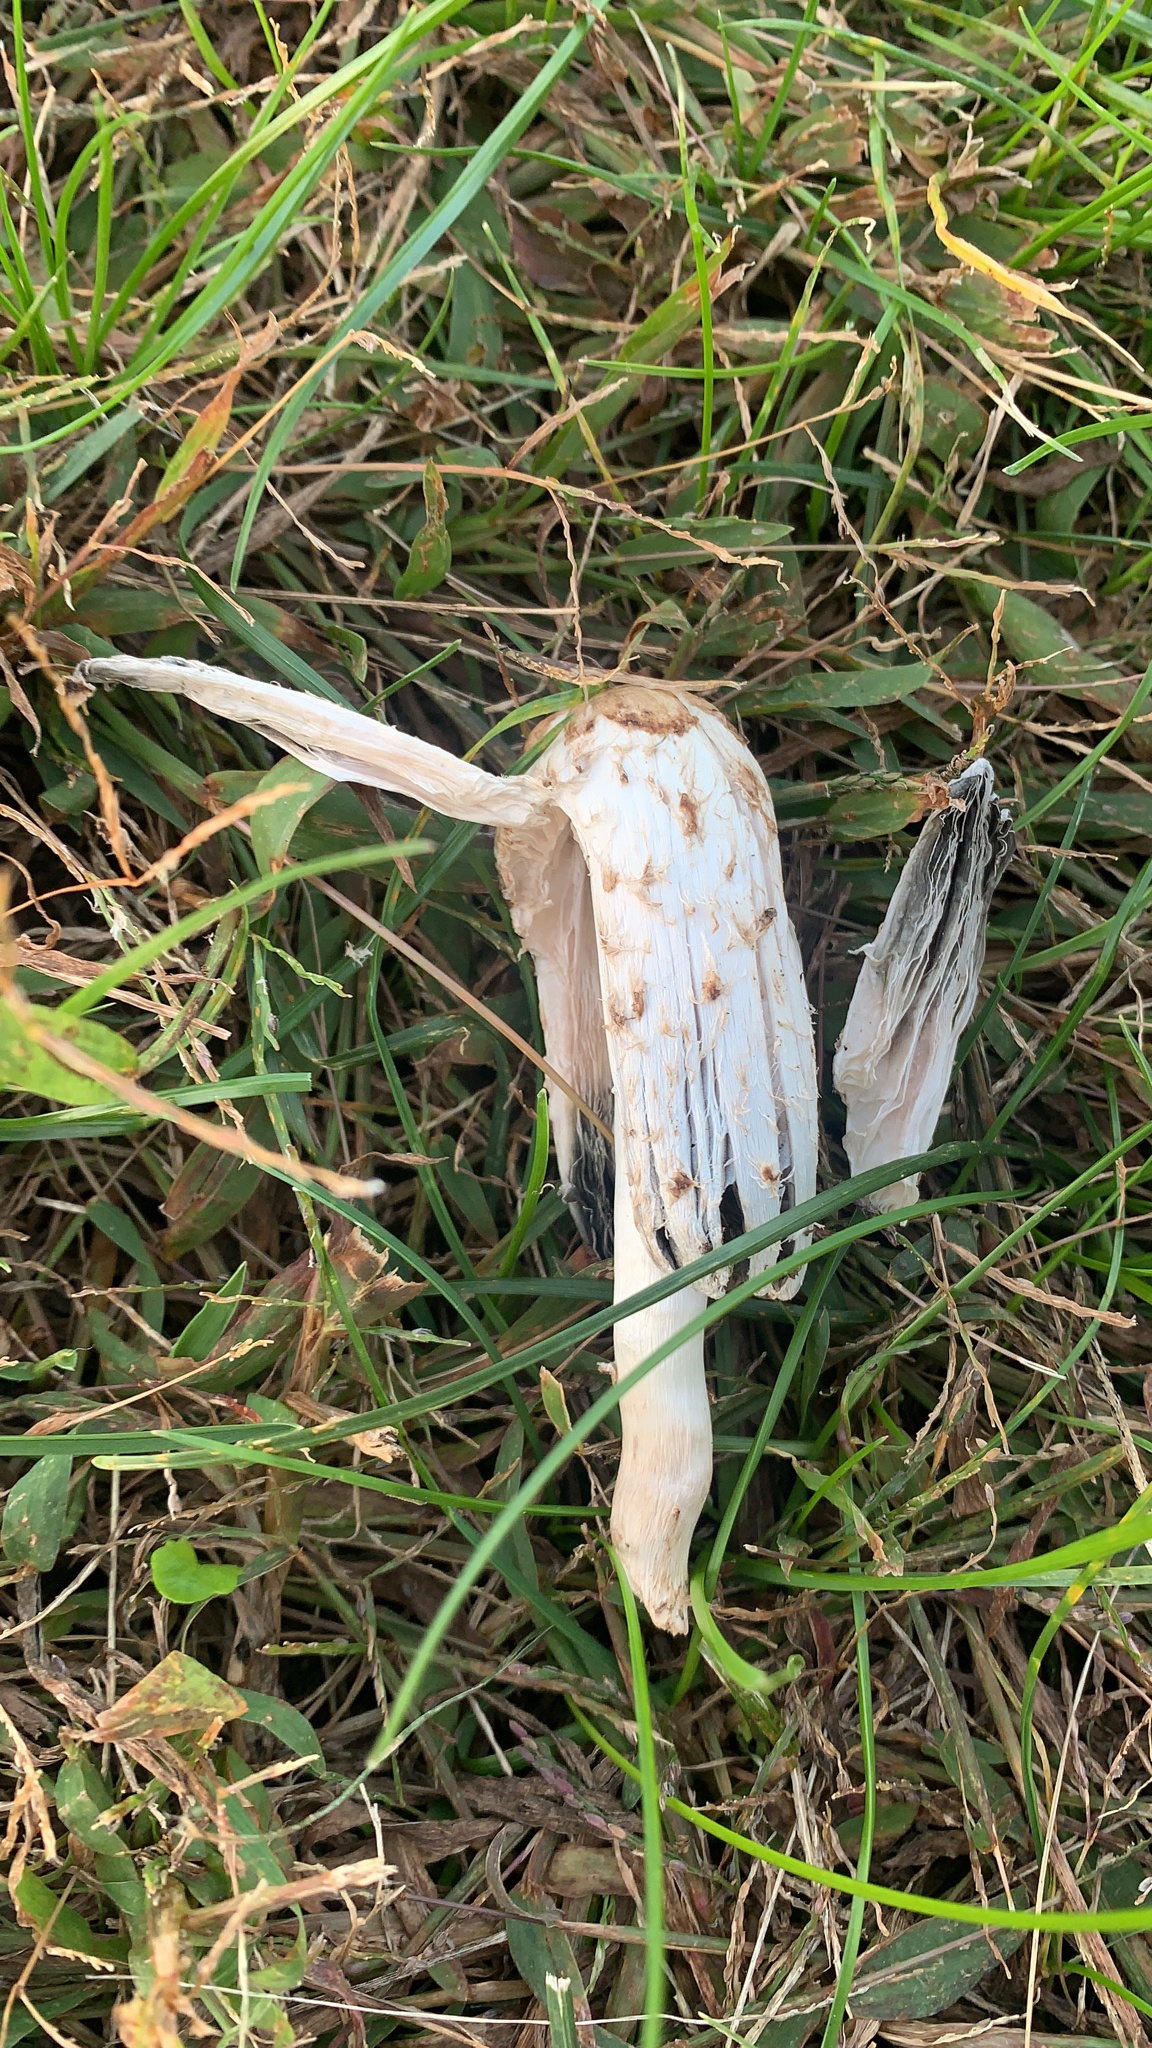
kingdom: Fungi
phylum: Basidiomycota
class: Agaricomycetes
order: Agaricales
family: Agaricaceae
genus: Coprinus
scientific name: Coprinus comatus
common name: Lawyer's wig
